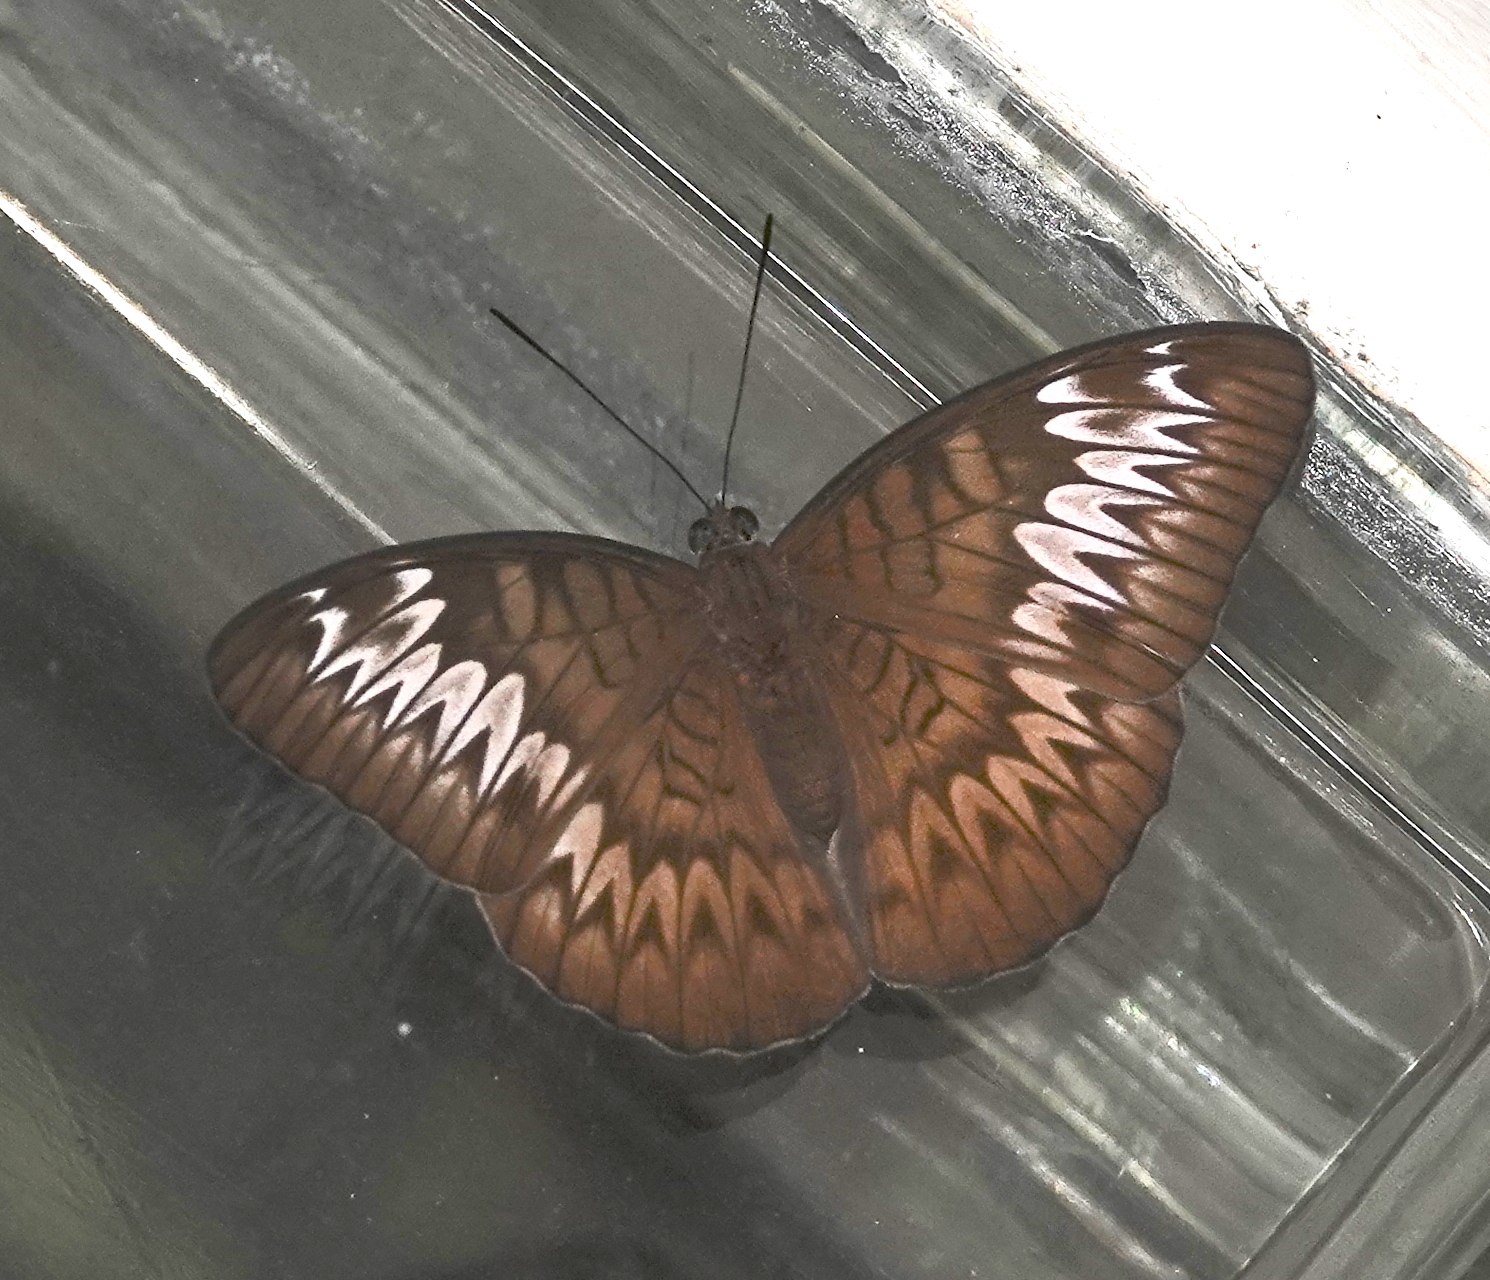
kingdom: Animalia
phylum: Arthropoda
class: Insecta
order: Lepidoptera
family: Nymphalidae
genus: Tanaecia
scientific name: Tanaecia pelea
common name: Malay viscount
